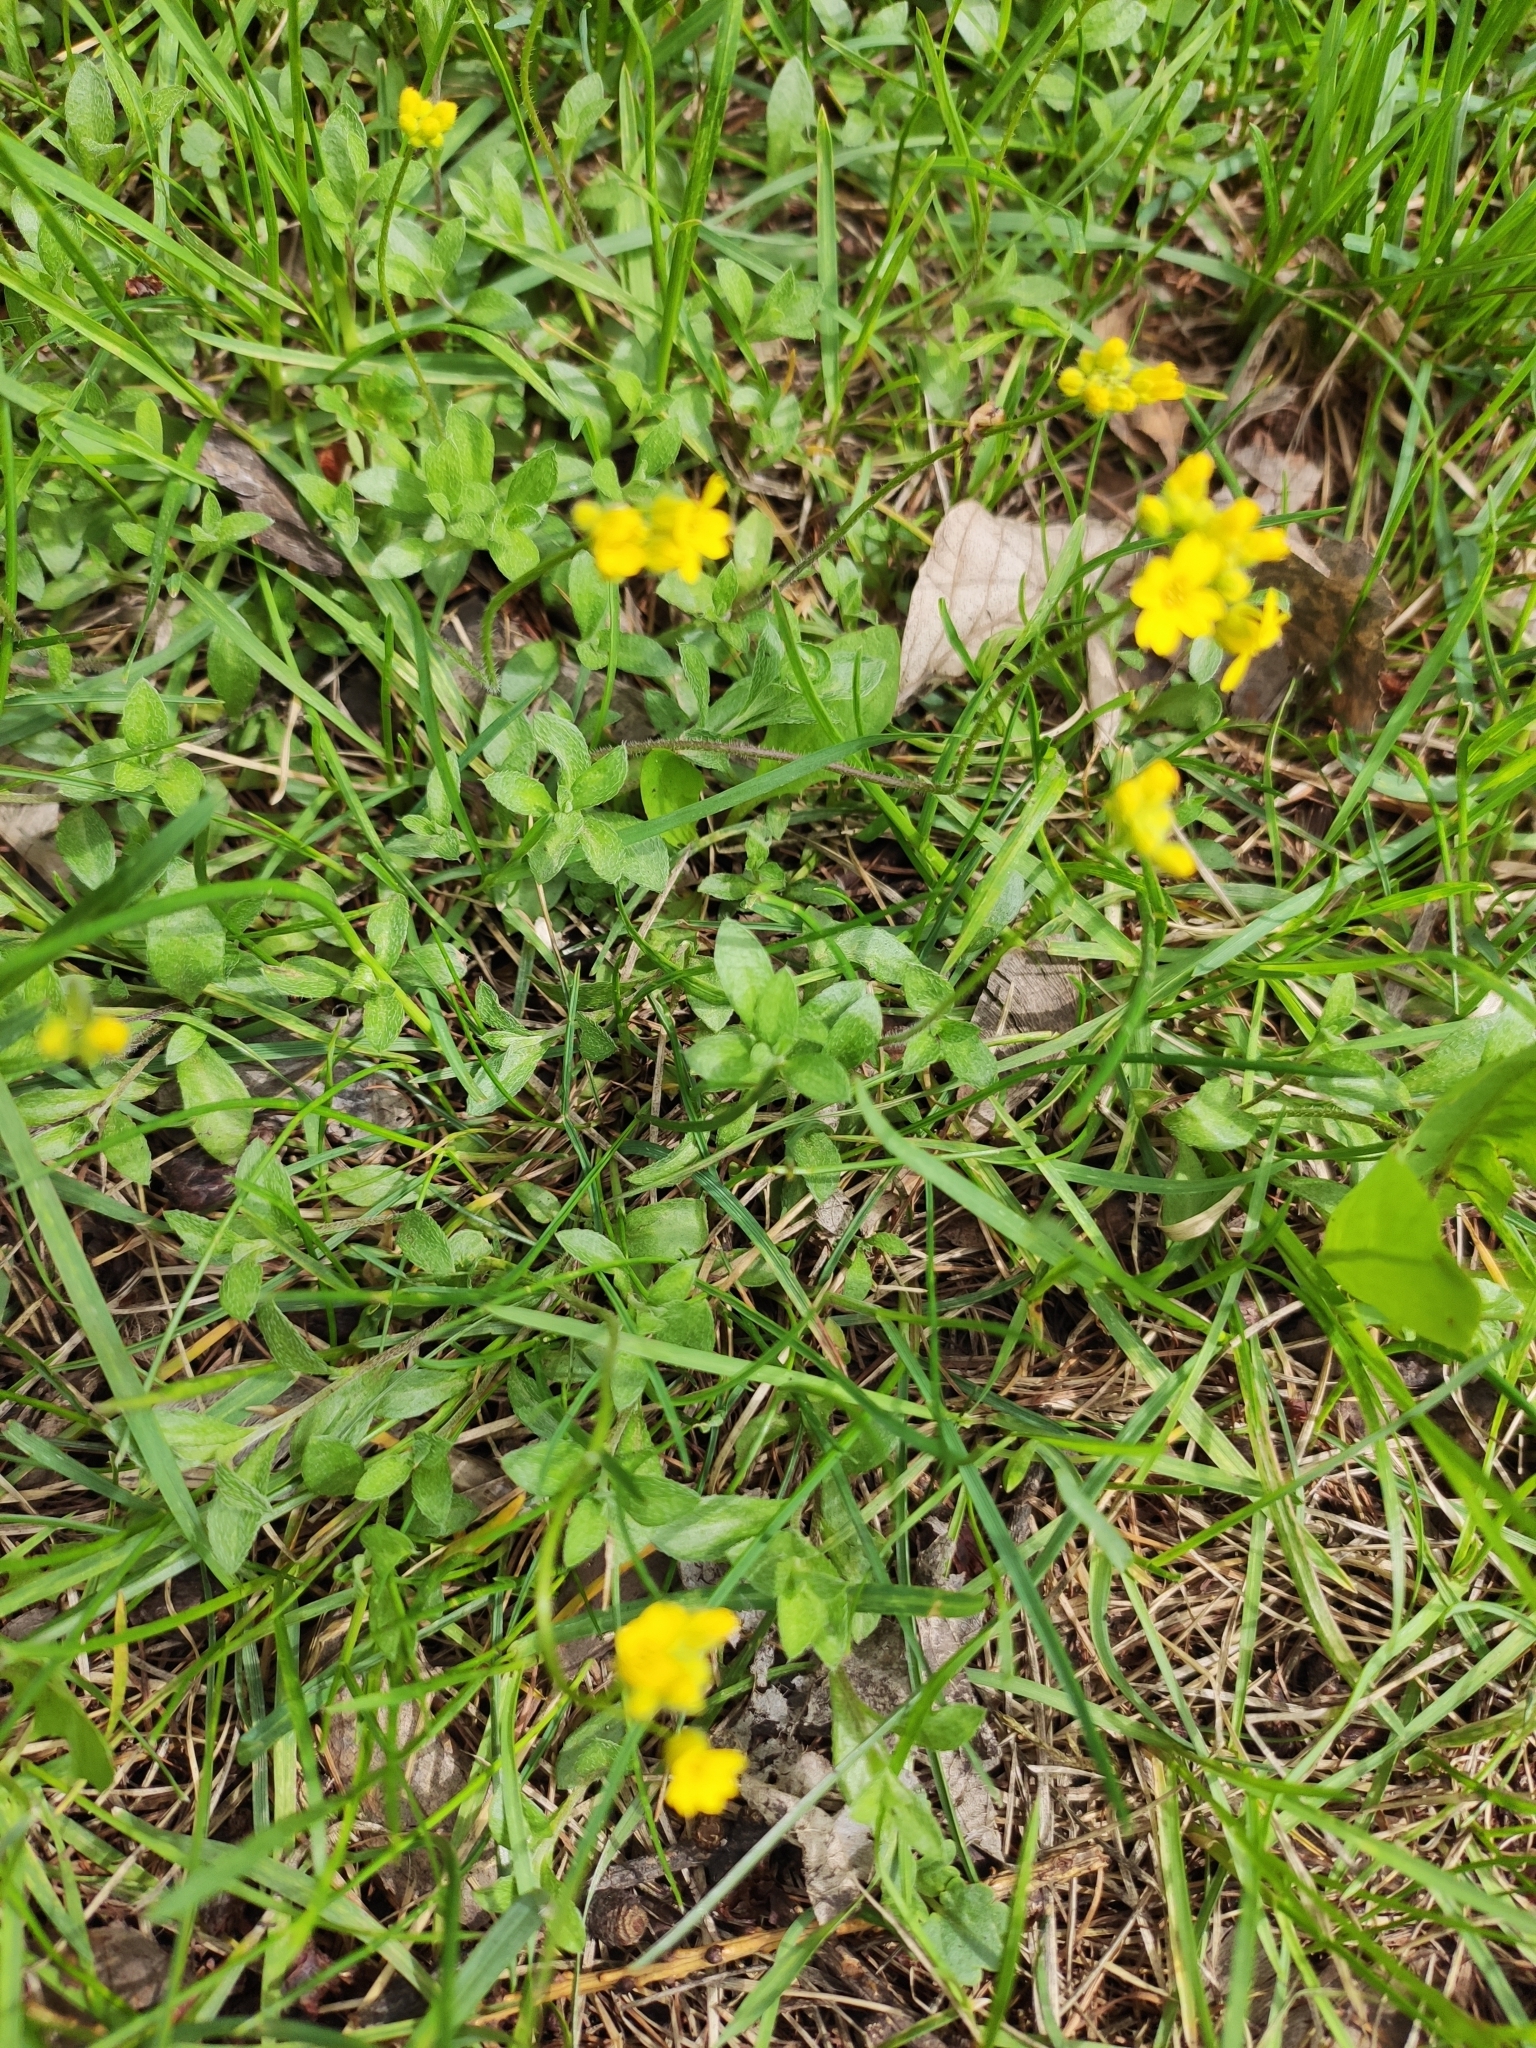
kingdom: Plantae
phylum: Tracheophyta
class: Magnoliopsida
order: Brassicales
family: Brassicaceae
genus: Draba
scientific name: Draba sibirica
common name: Siberian draba
